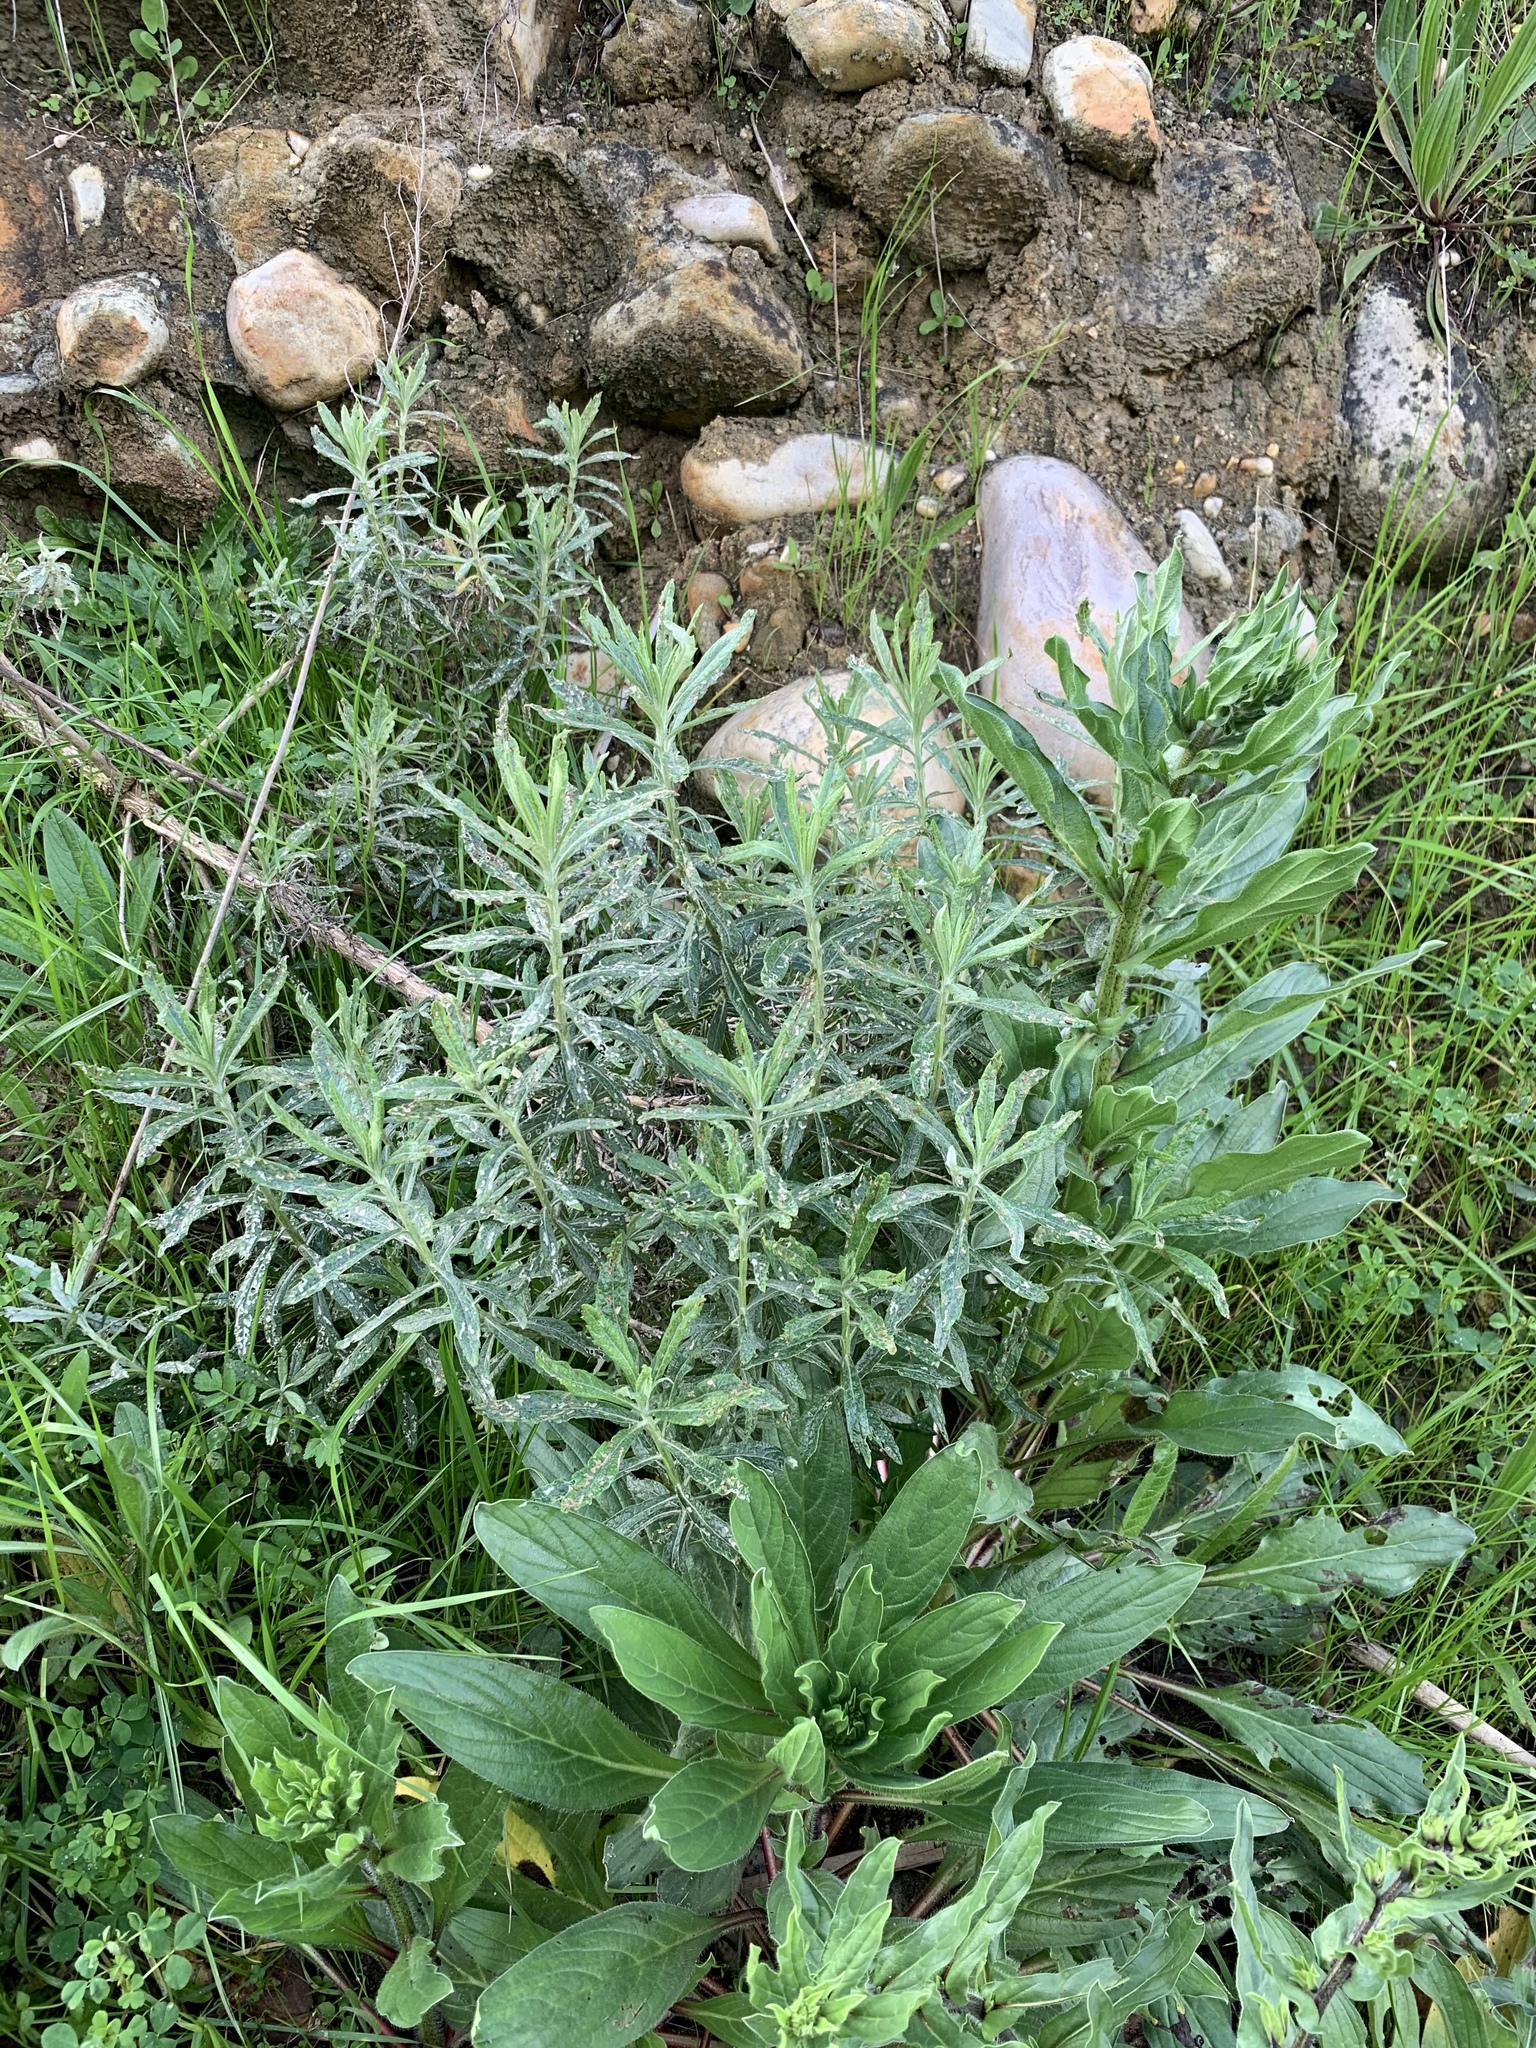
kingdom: Plantae
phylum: Tracheophyta
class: Magnoliopsida
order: Asterales
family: Asteraceae
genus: Senecio
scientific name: Senecio pterophorus
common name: Shoddy ragwort
